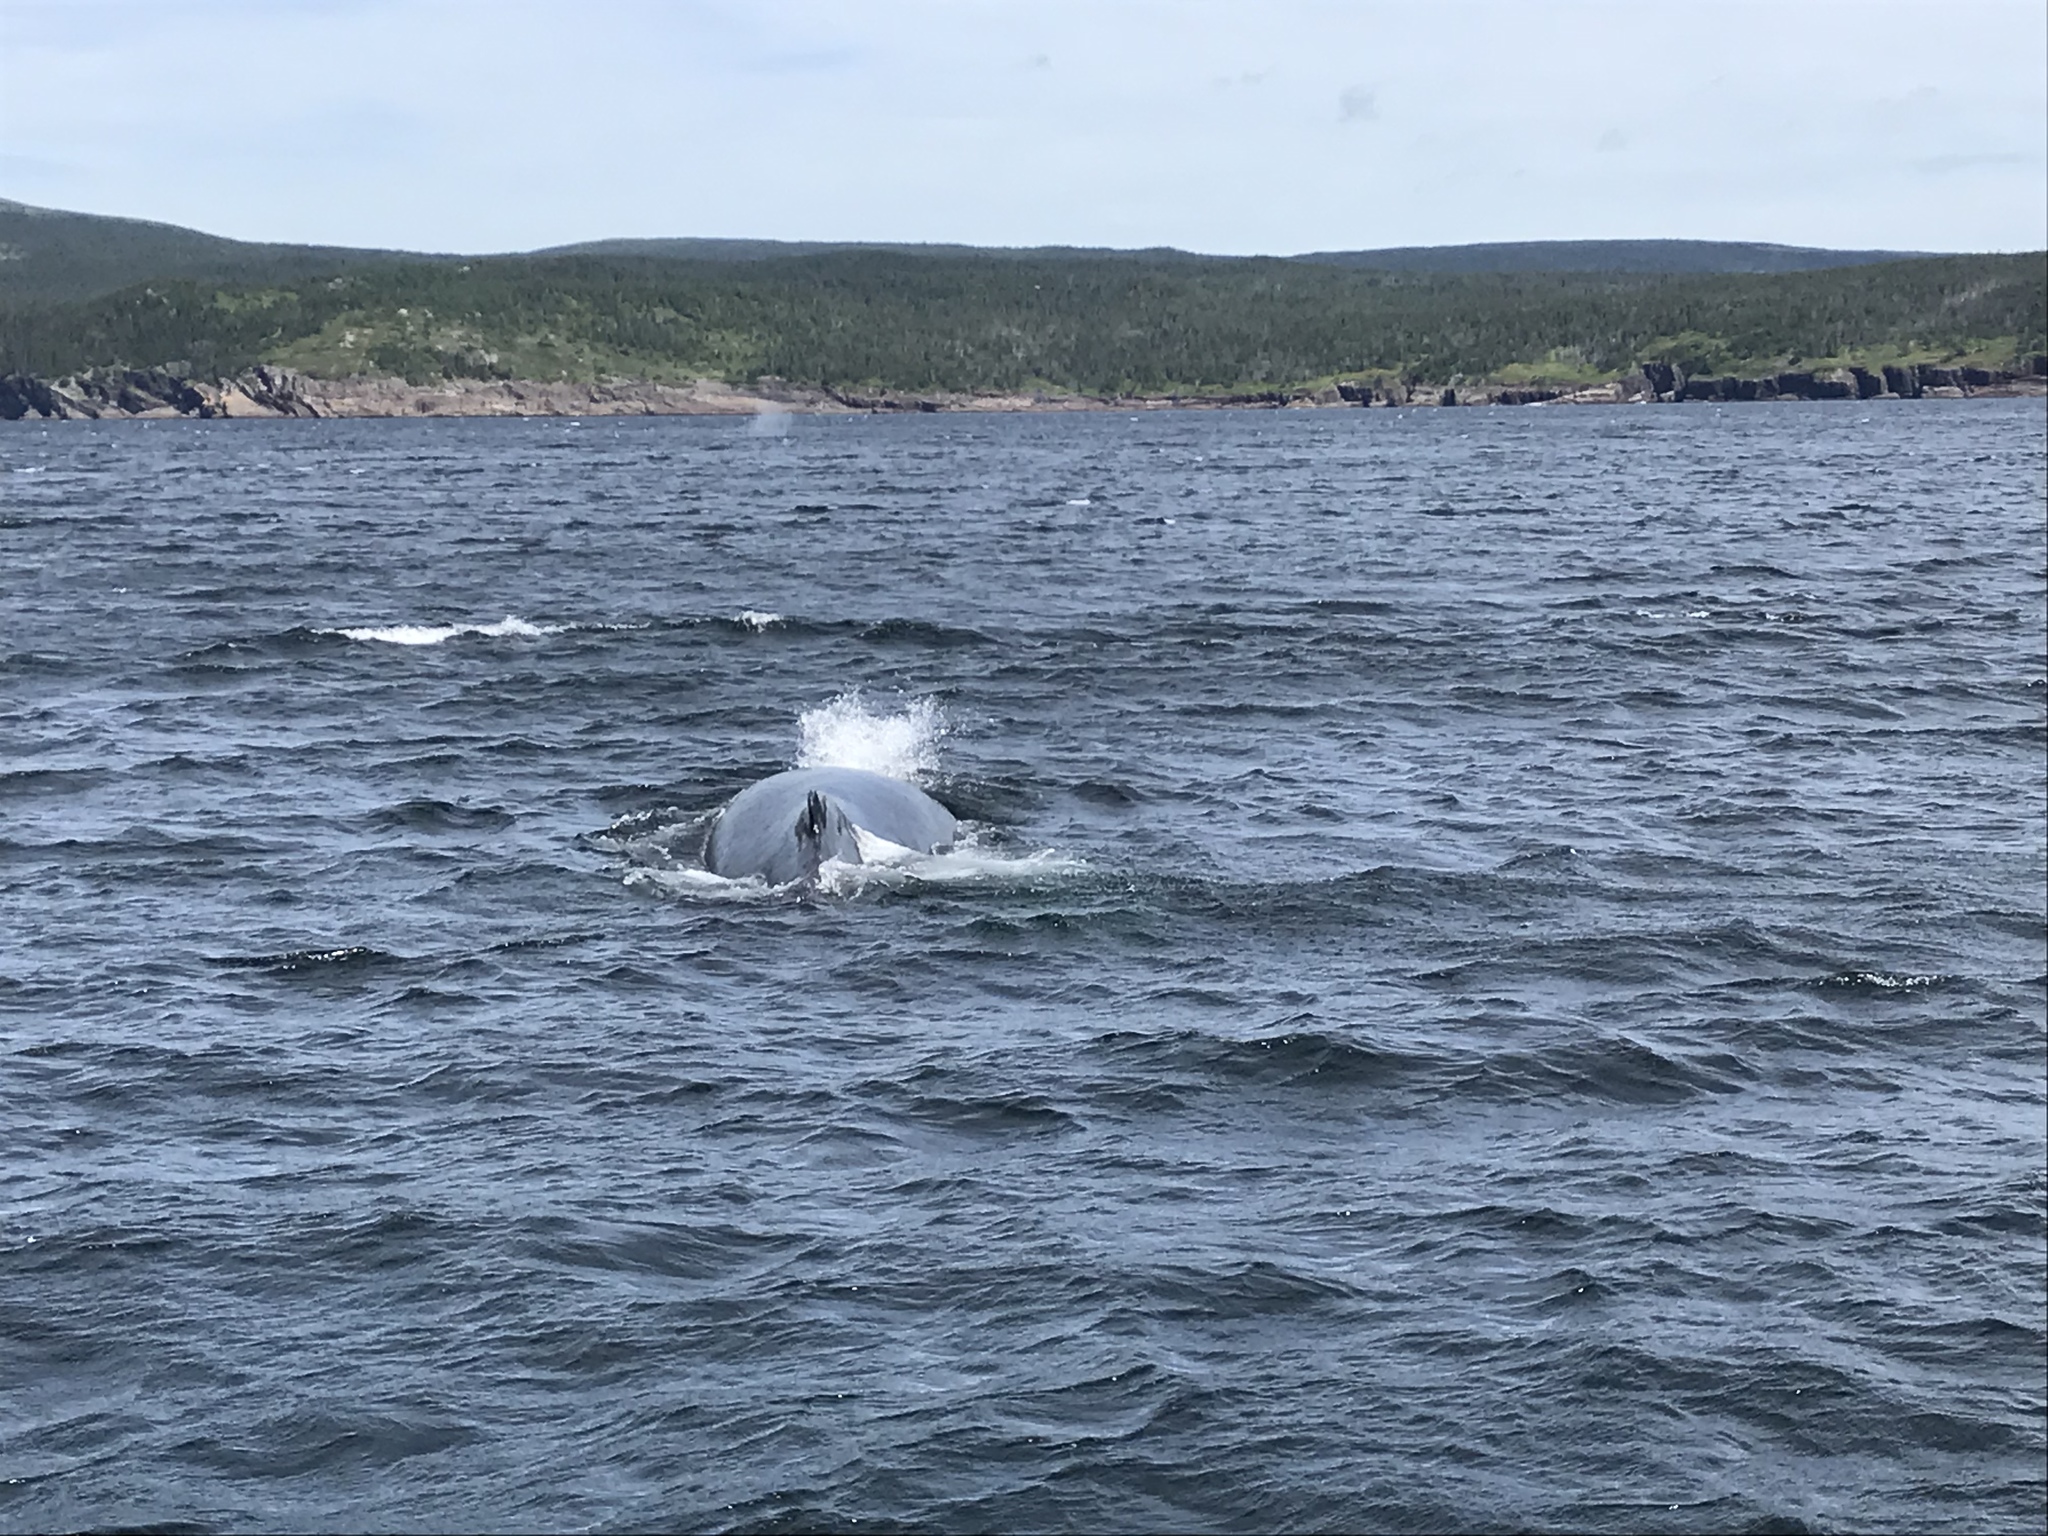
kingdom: Animalia
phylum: Chordata
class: Mammalia
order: Cetacea
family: Balaenopteridae
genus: Megaptera
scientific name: Megaptera novaeangliae
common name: Humpback whale
